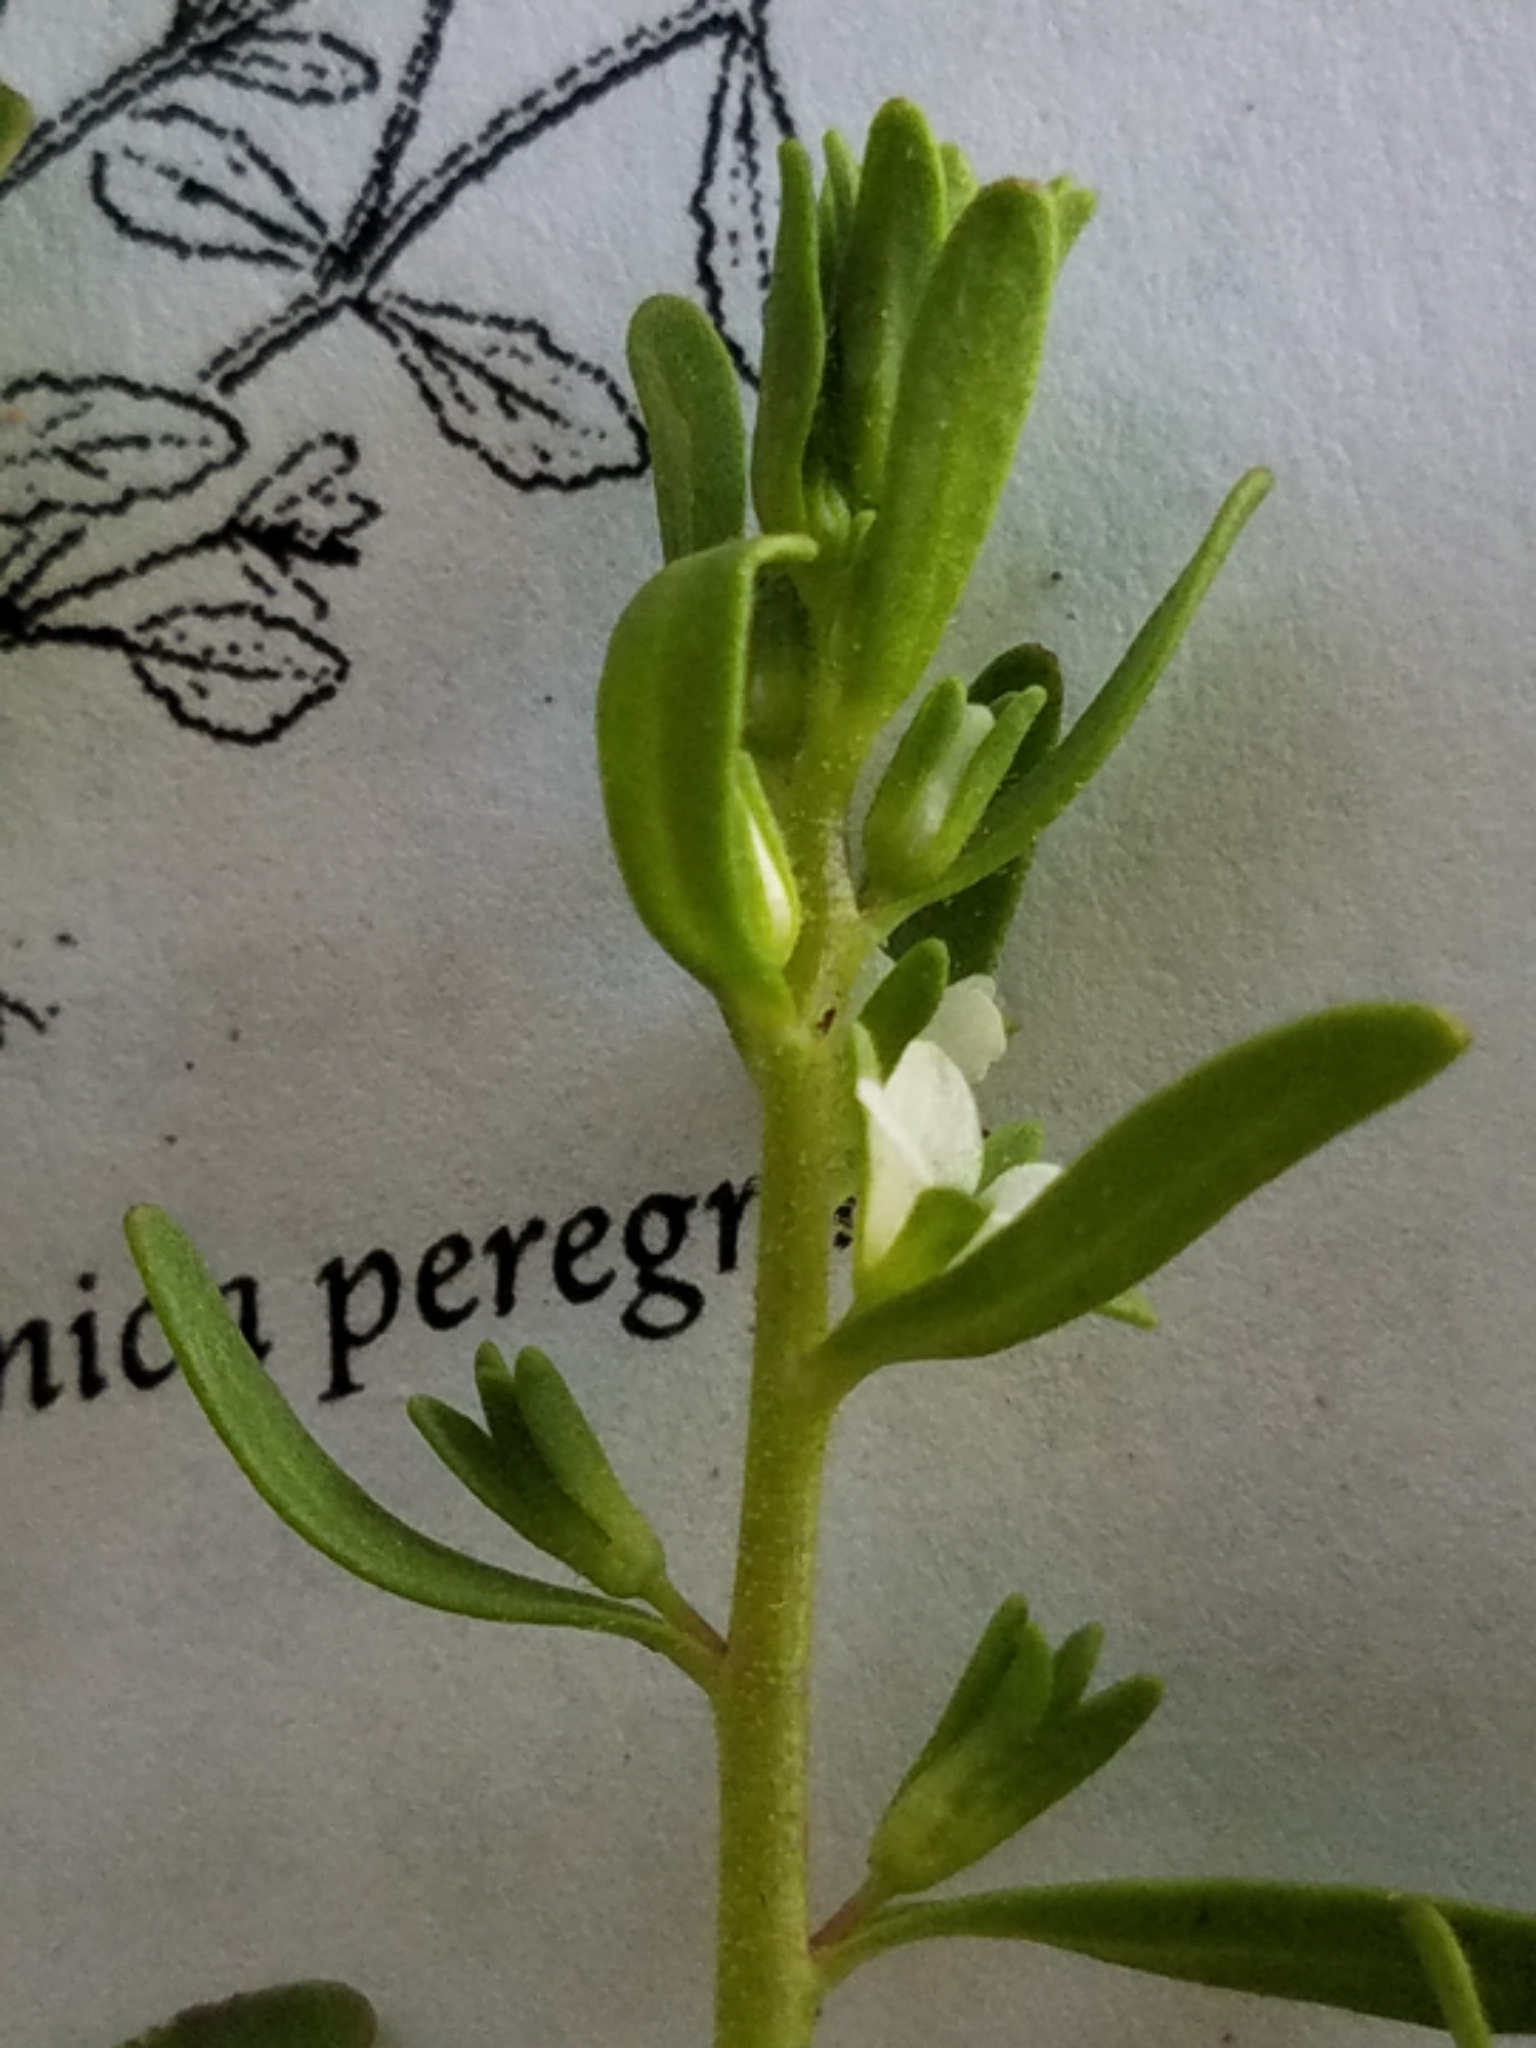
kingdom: Plantae
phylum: Tracheophyta
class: Magnoliopsida
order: Lamiales
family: Plantaginaceae
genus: Veronica
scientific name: Veronica peregrina
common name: Neckweed
